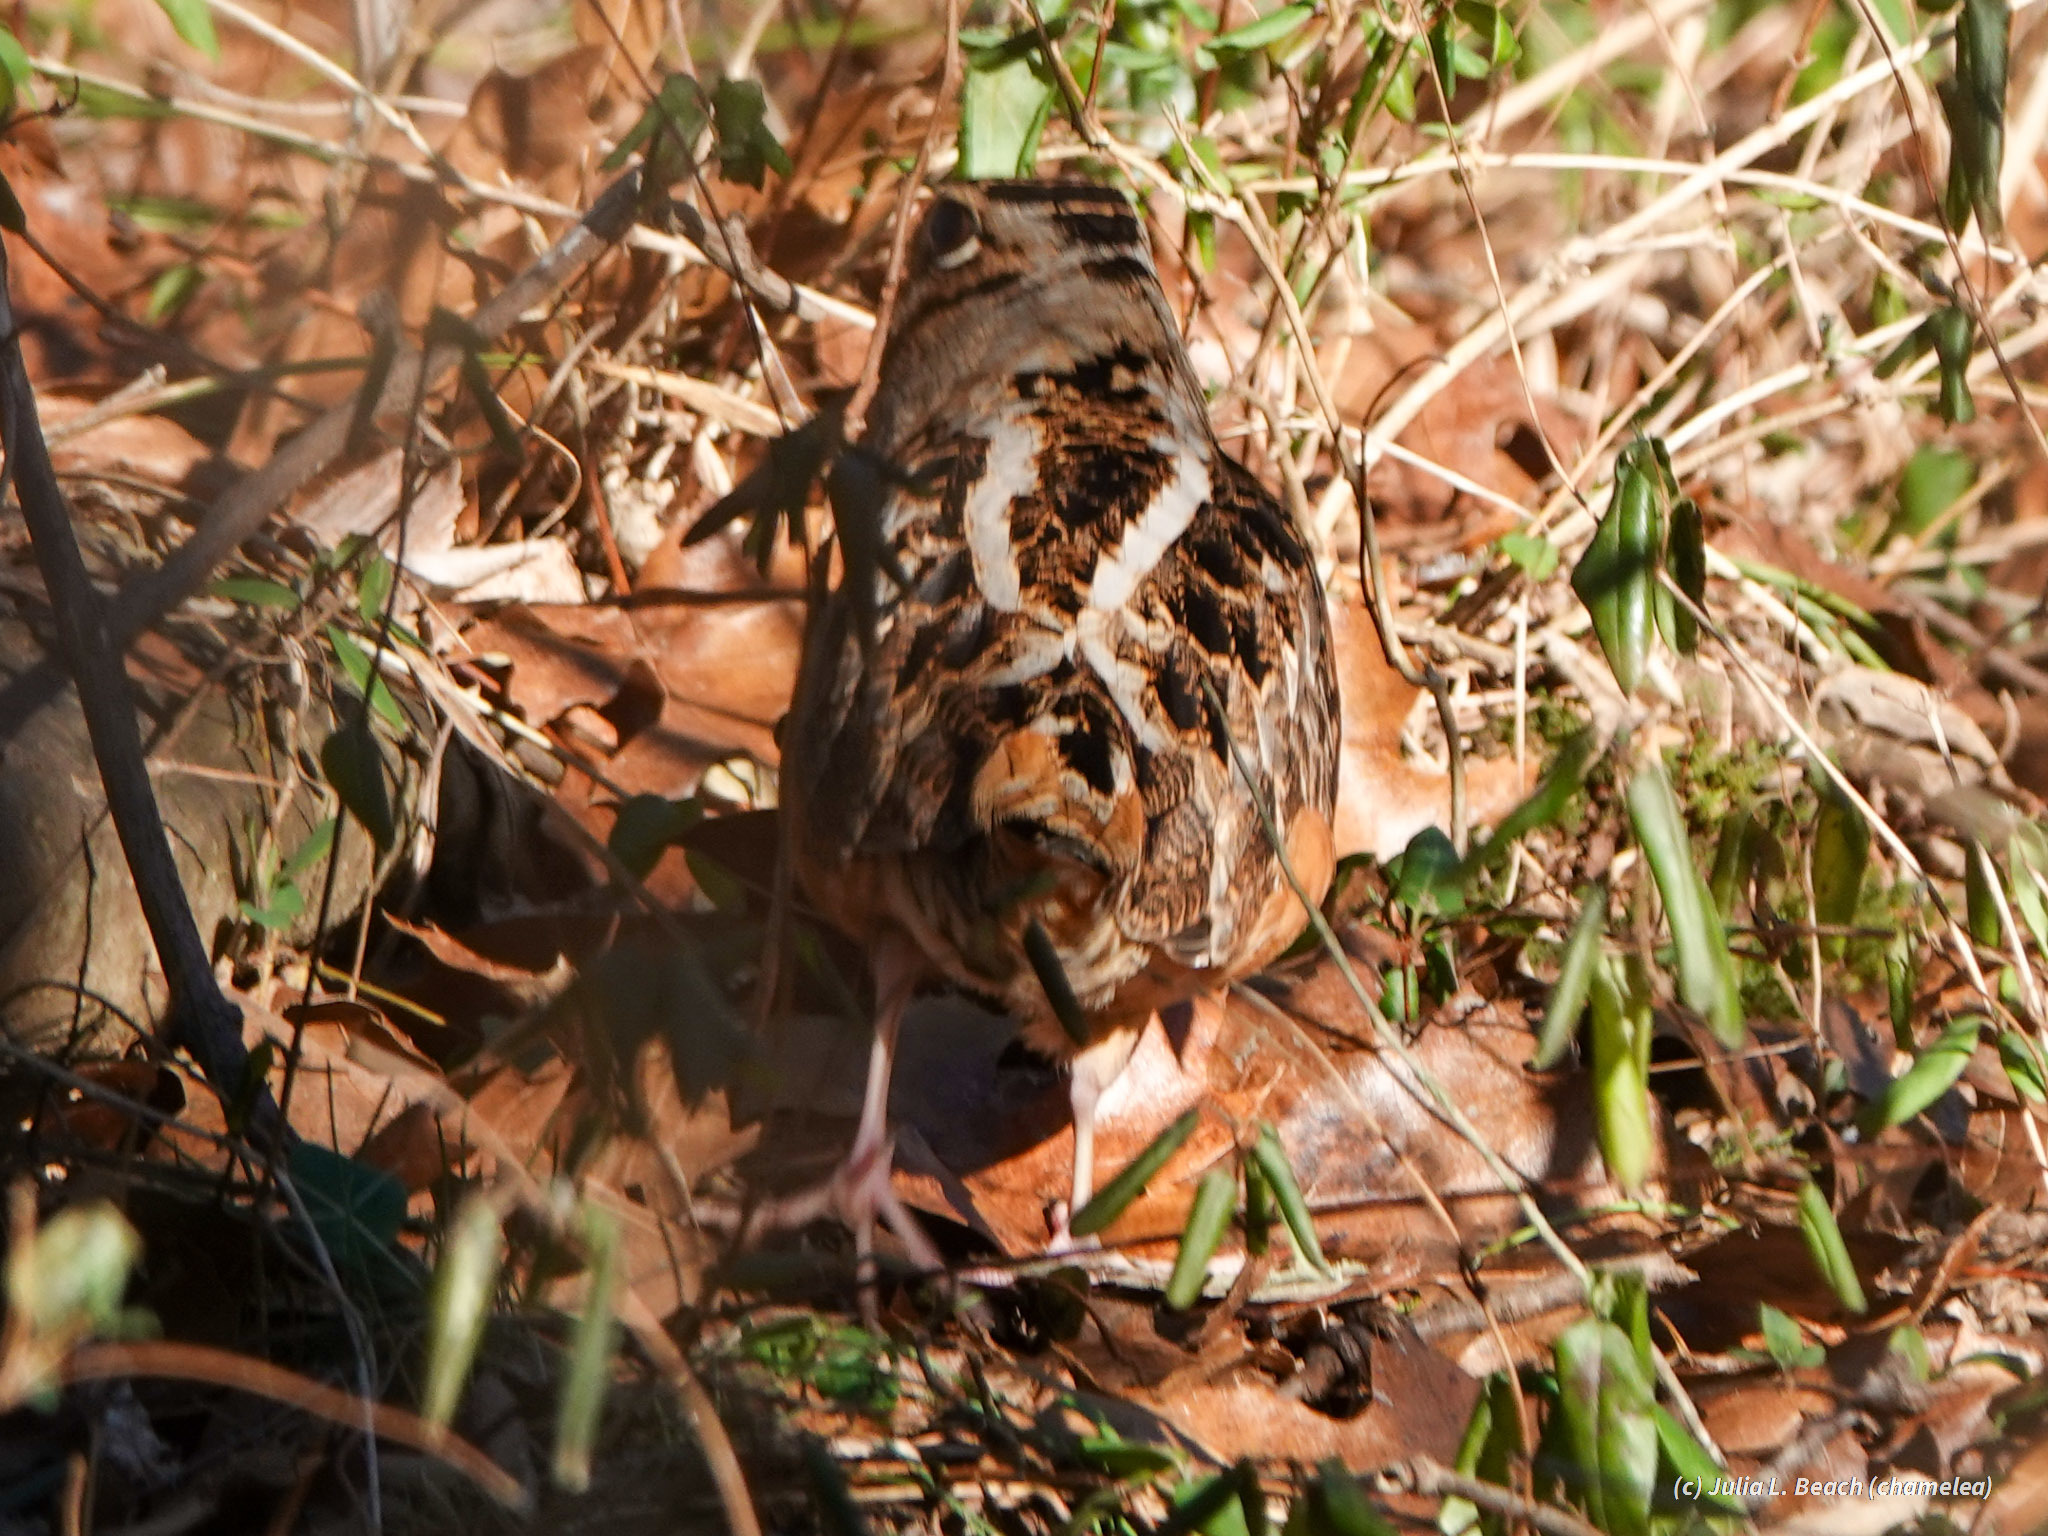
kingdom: Animalia
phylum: Chordata
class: Aves
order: Charadriiformes
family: Scolopacidae
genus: Scolopax
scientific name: Scolopax minor
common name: American woodcock
